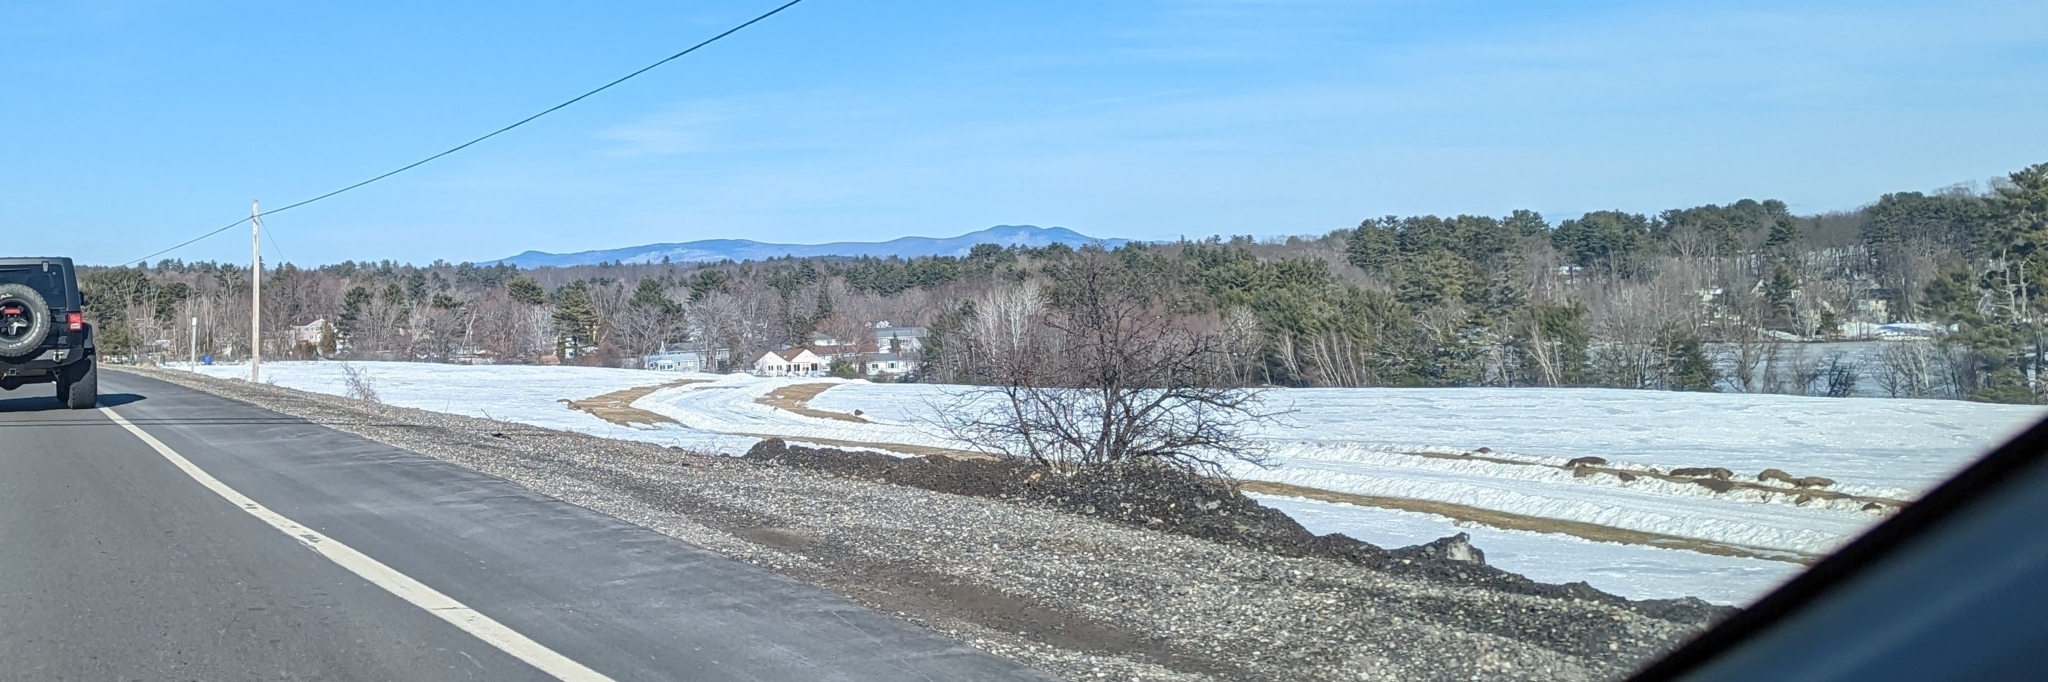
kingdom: Plantae
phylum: Tracheophyta
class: Pinopsida
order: Pinales
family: Pinaceae
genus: Pinus
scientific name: Pinus strobus
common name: Weymouth pine
